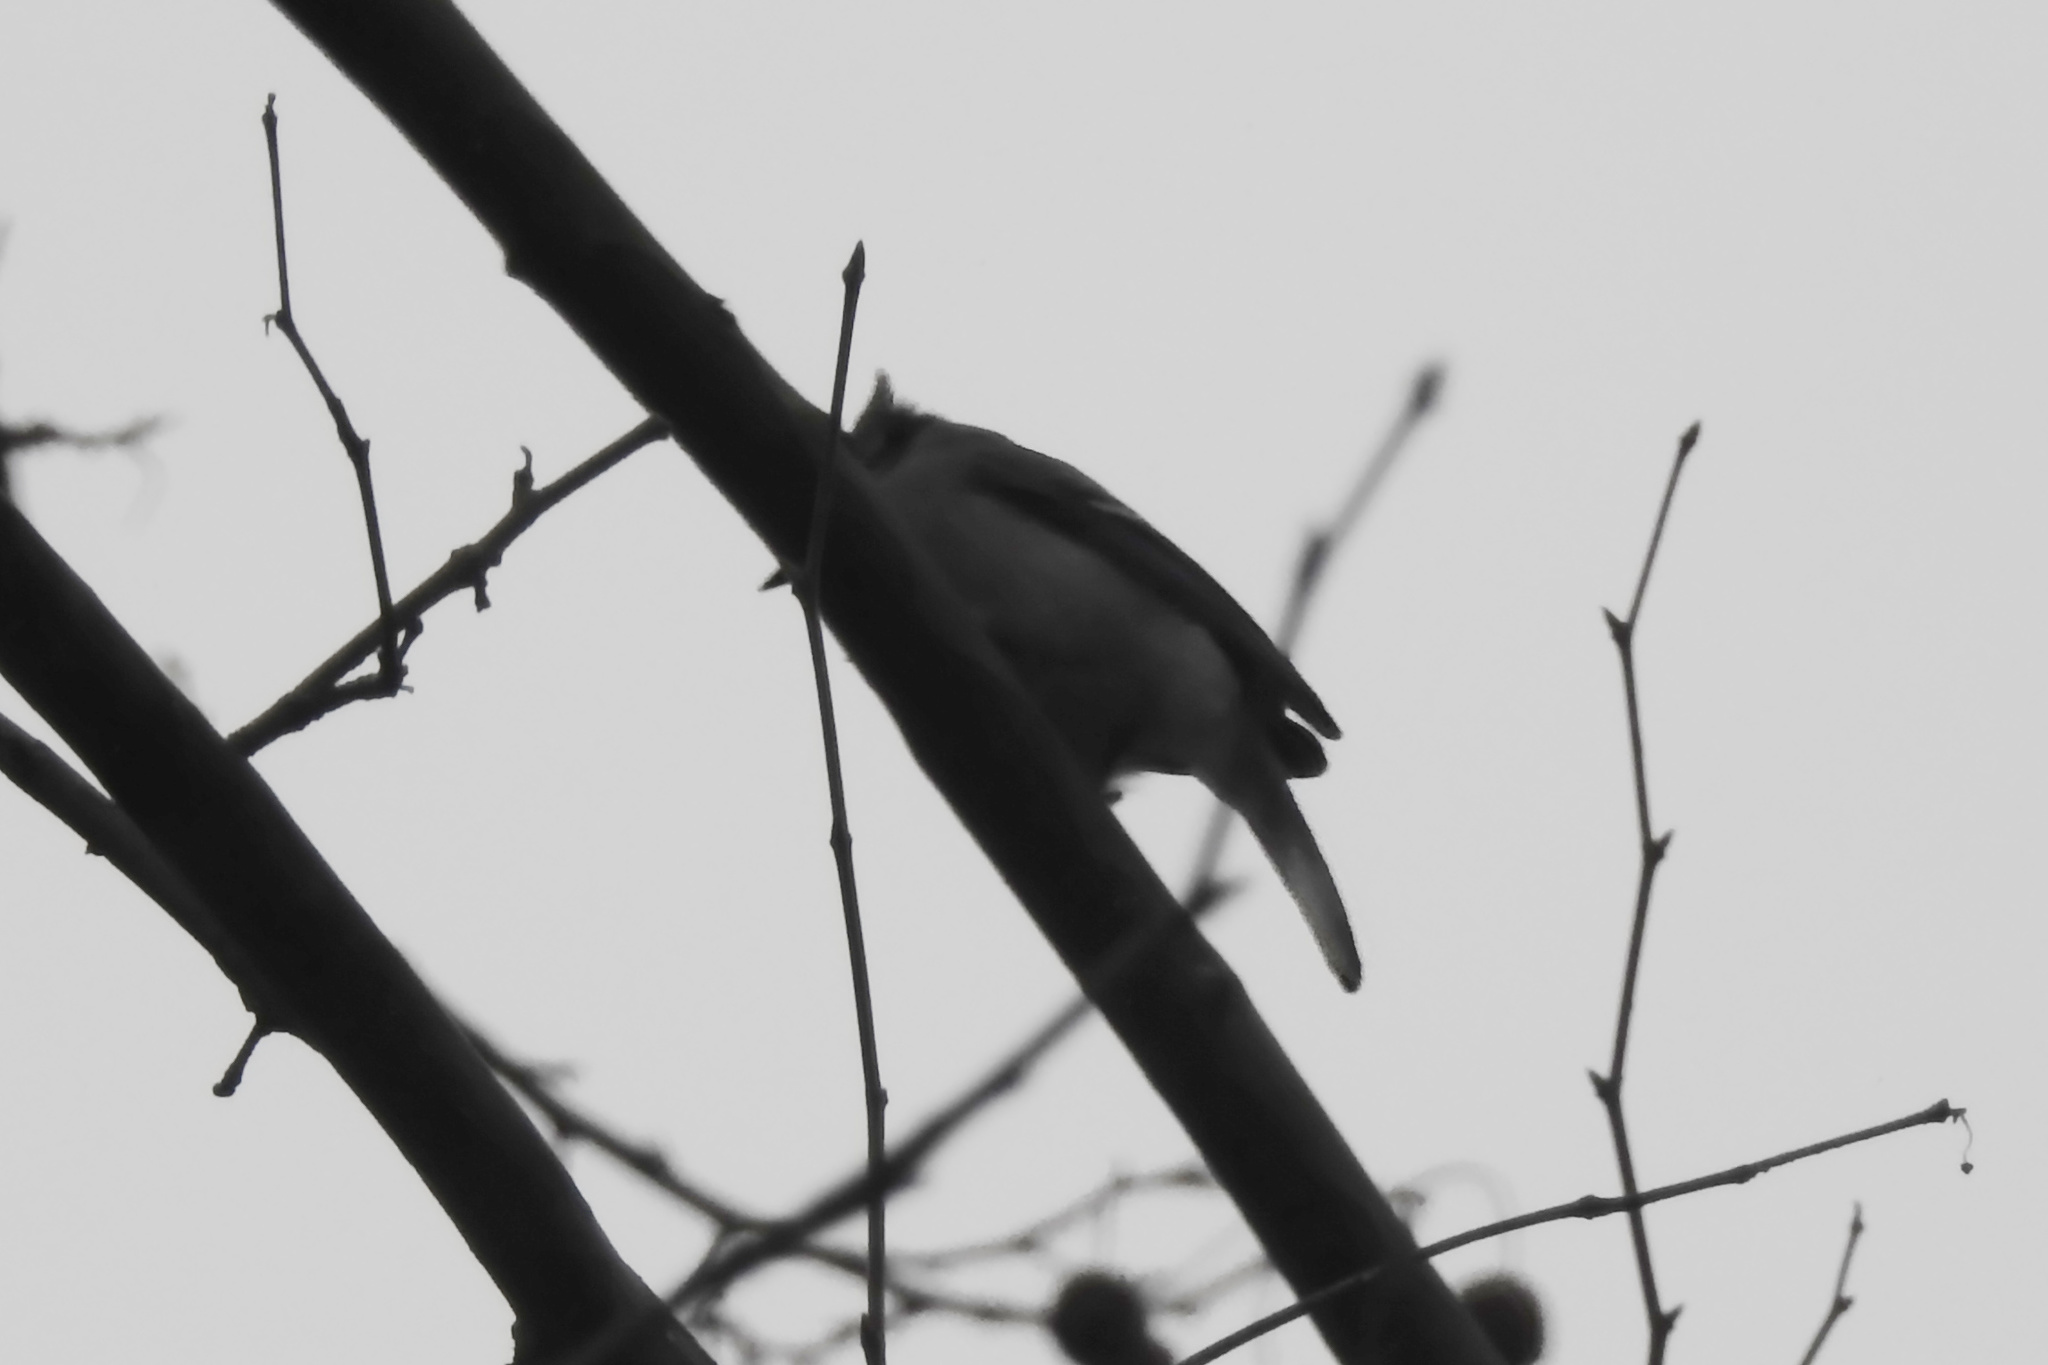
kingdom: Animalia
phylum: Chordata
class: Aves
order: Passeriformes
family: Corvidae
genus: Cyanocitta
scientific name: Cyanocitta cristata
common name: Blue jay
